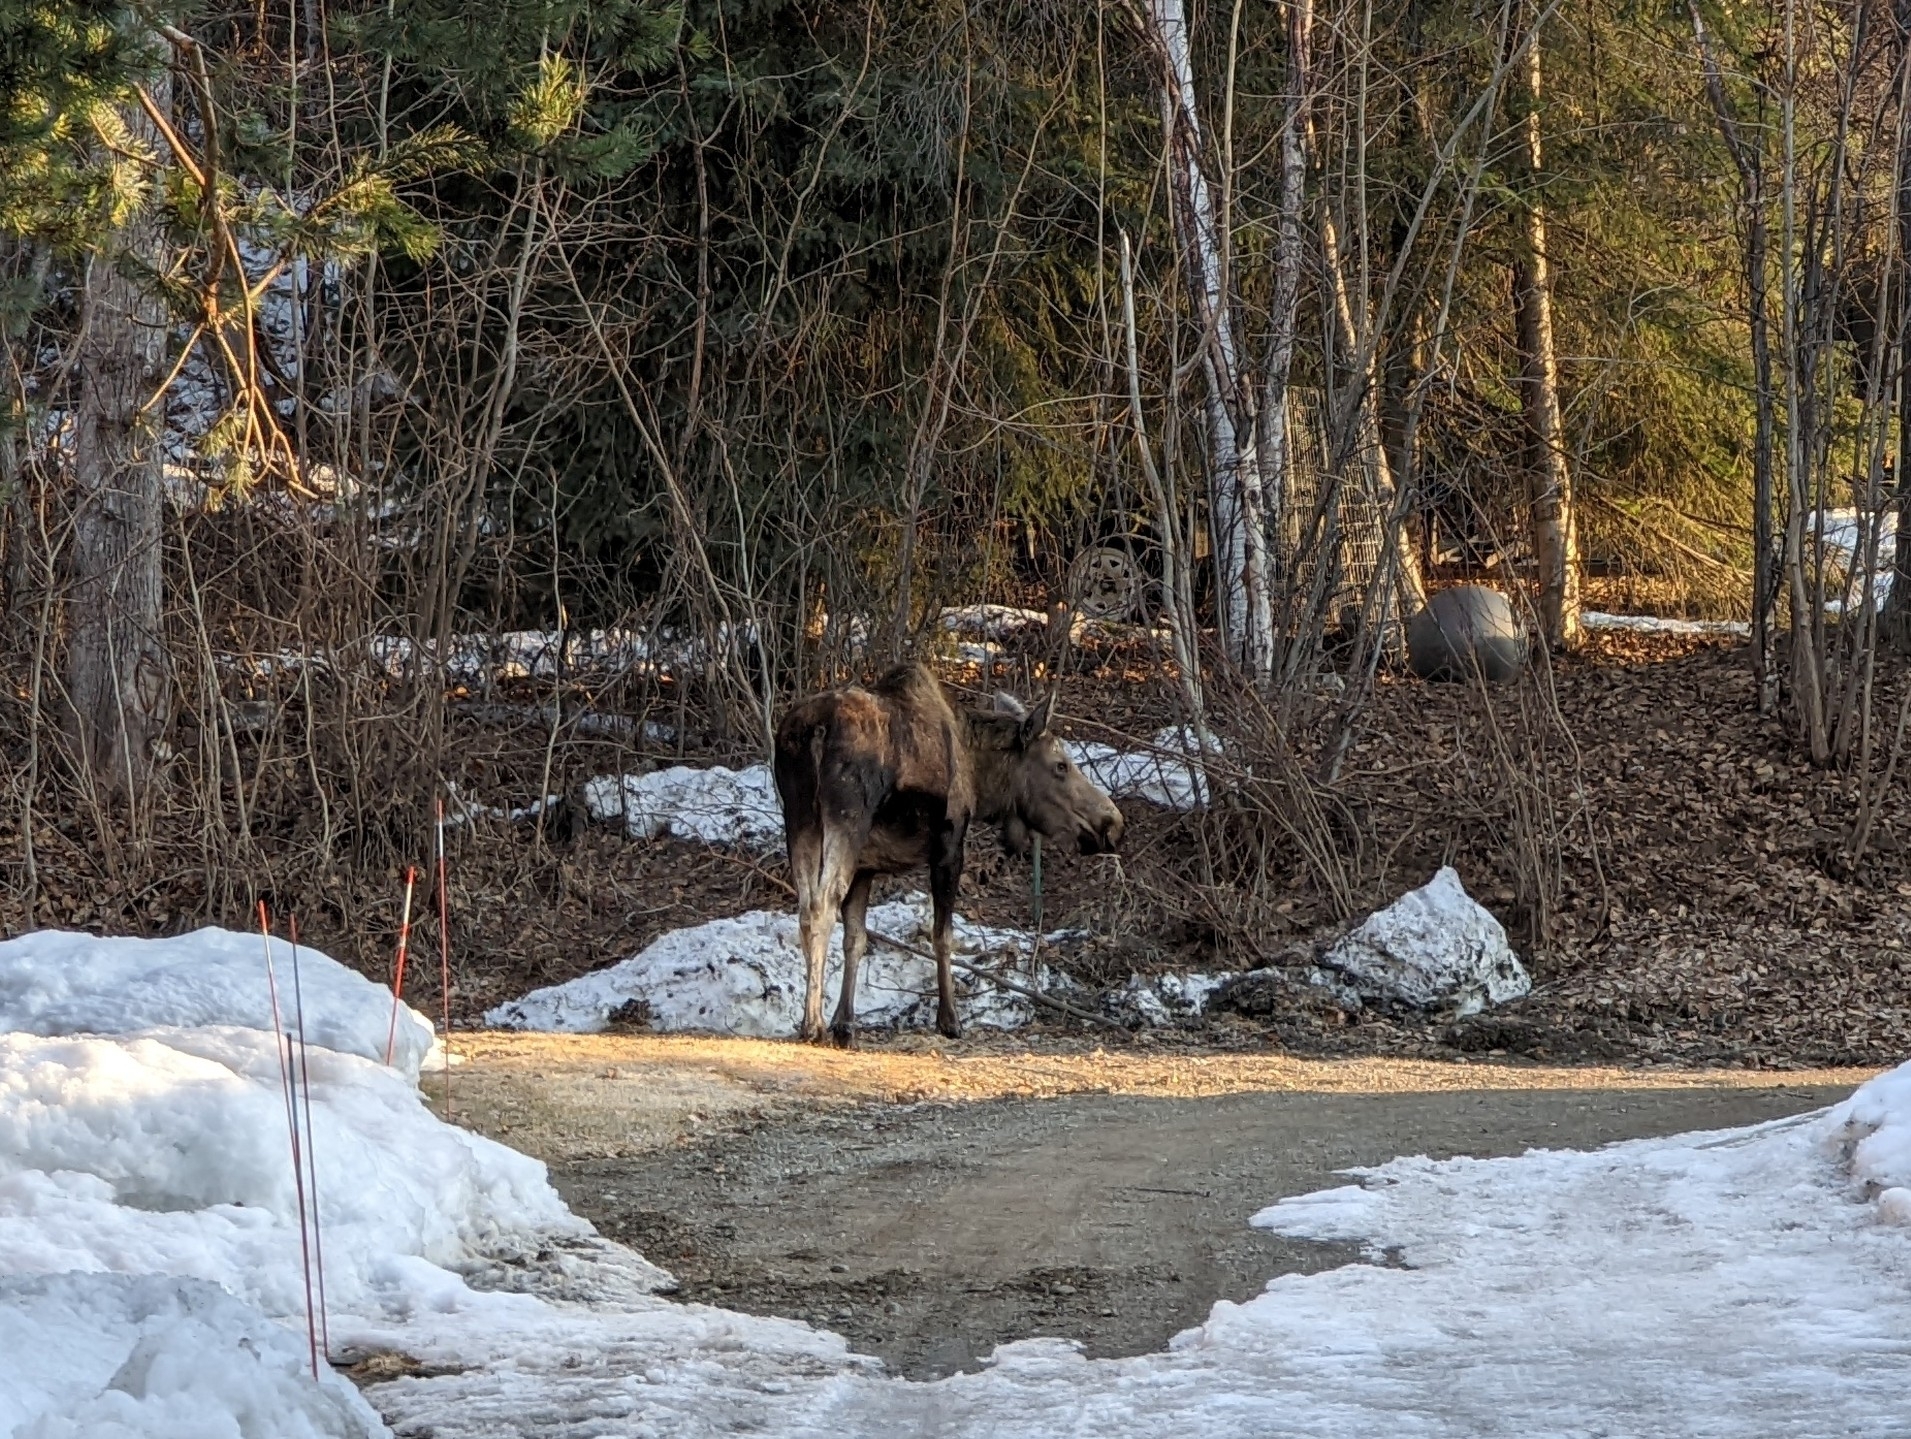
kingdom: Animalia
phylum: Chordata
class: Mammalia
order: Artiodactyla
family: Cervidae
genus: Alces
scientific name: Alces alces
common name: Moose
